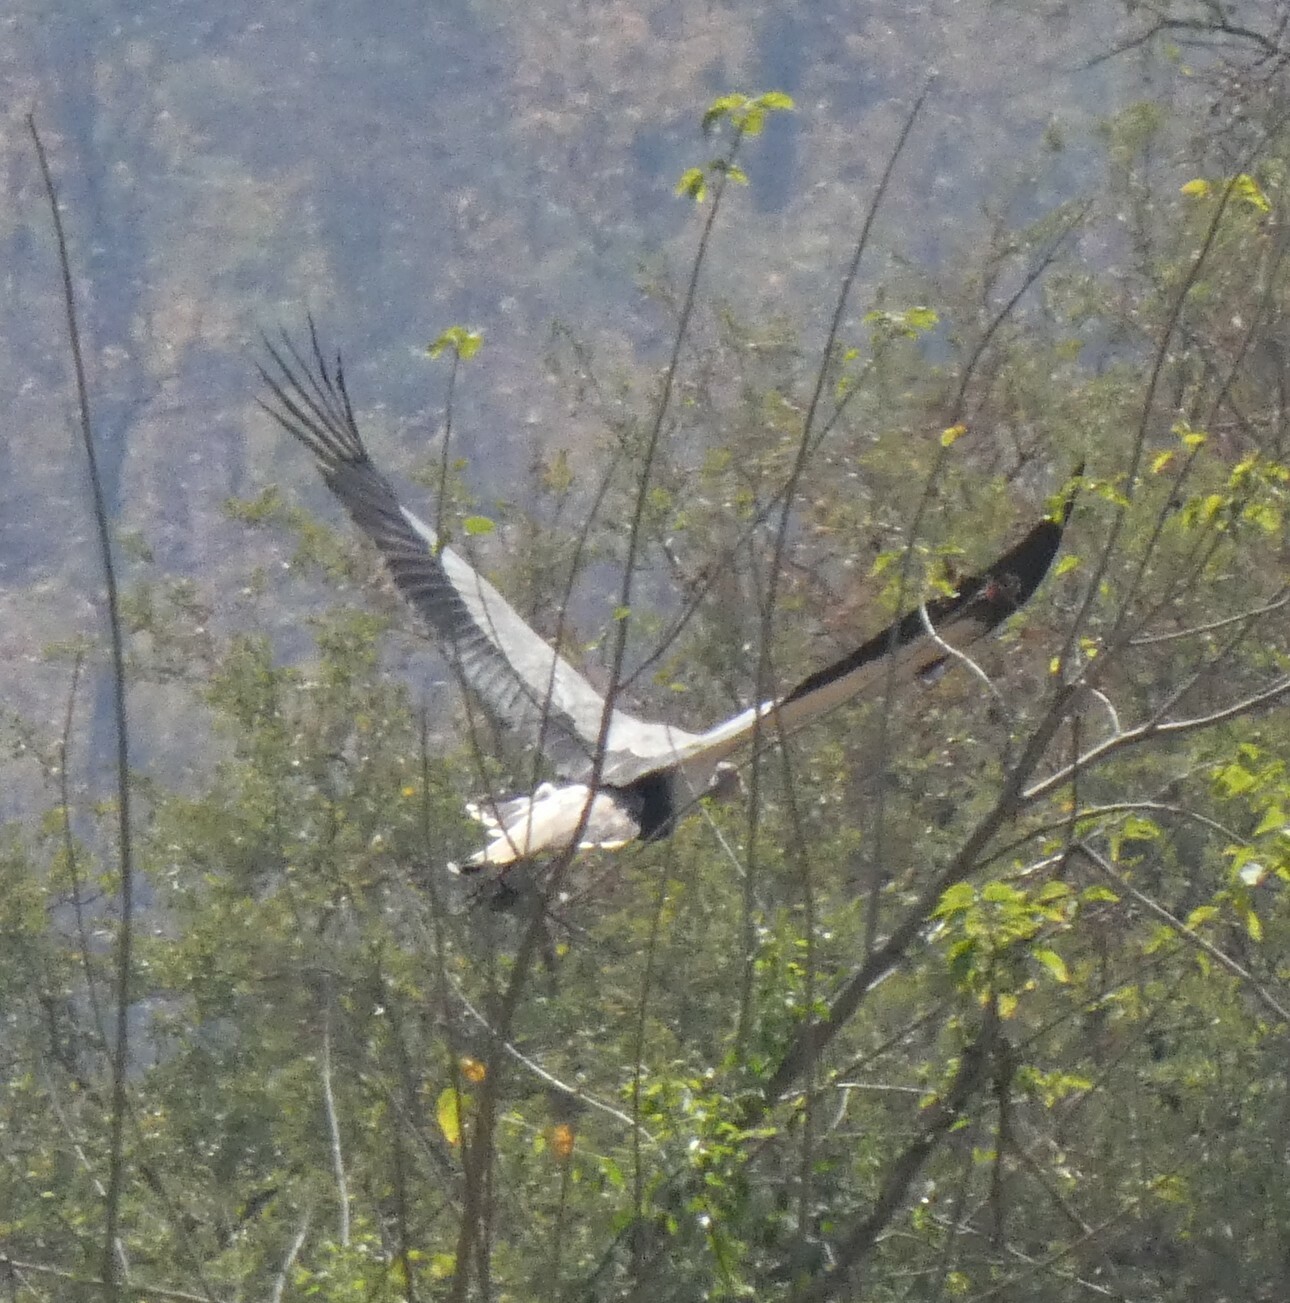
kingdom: Animalia
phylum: Chordata
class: Aves
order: Accipitriformes
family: Sagittariidae
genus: Sagittarius
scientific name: Sagittarius serpentarius
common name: Secretarybird
